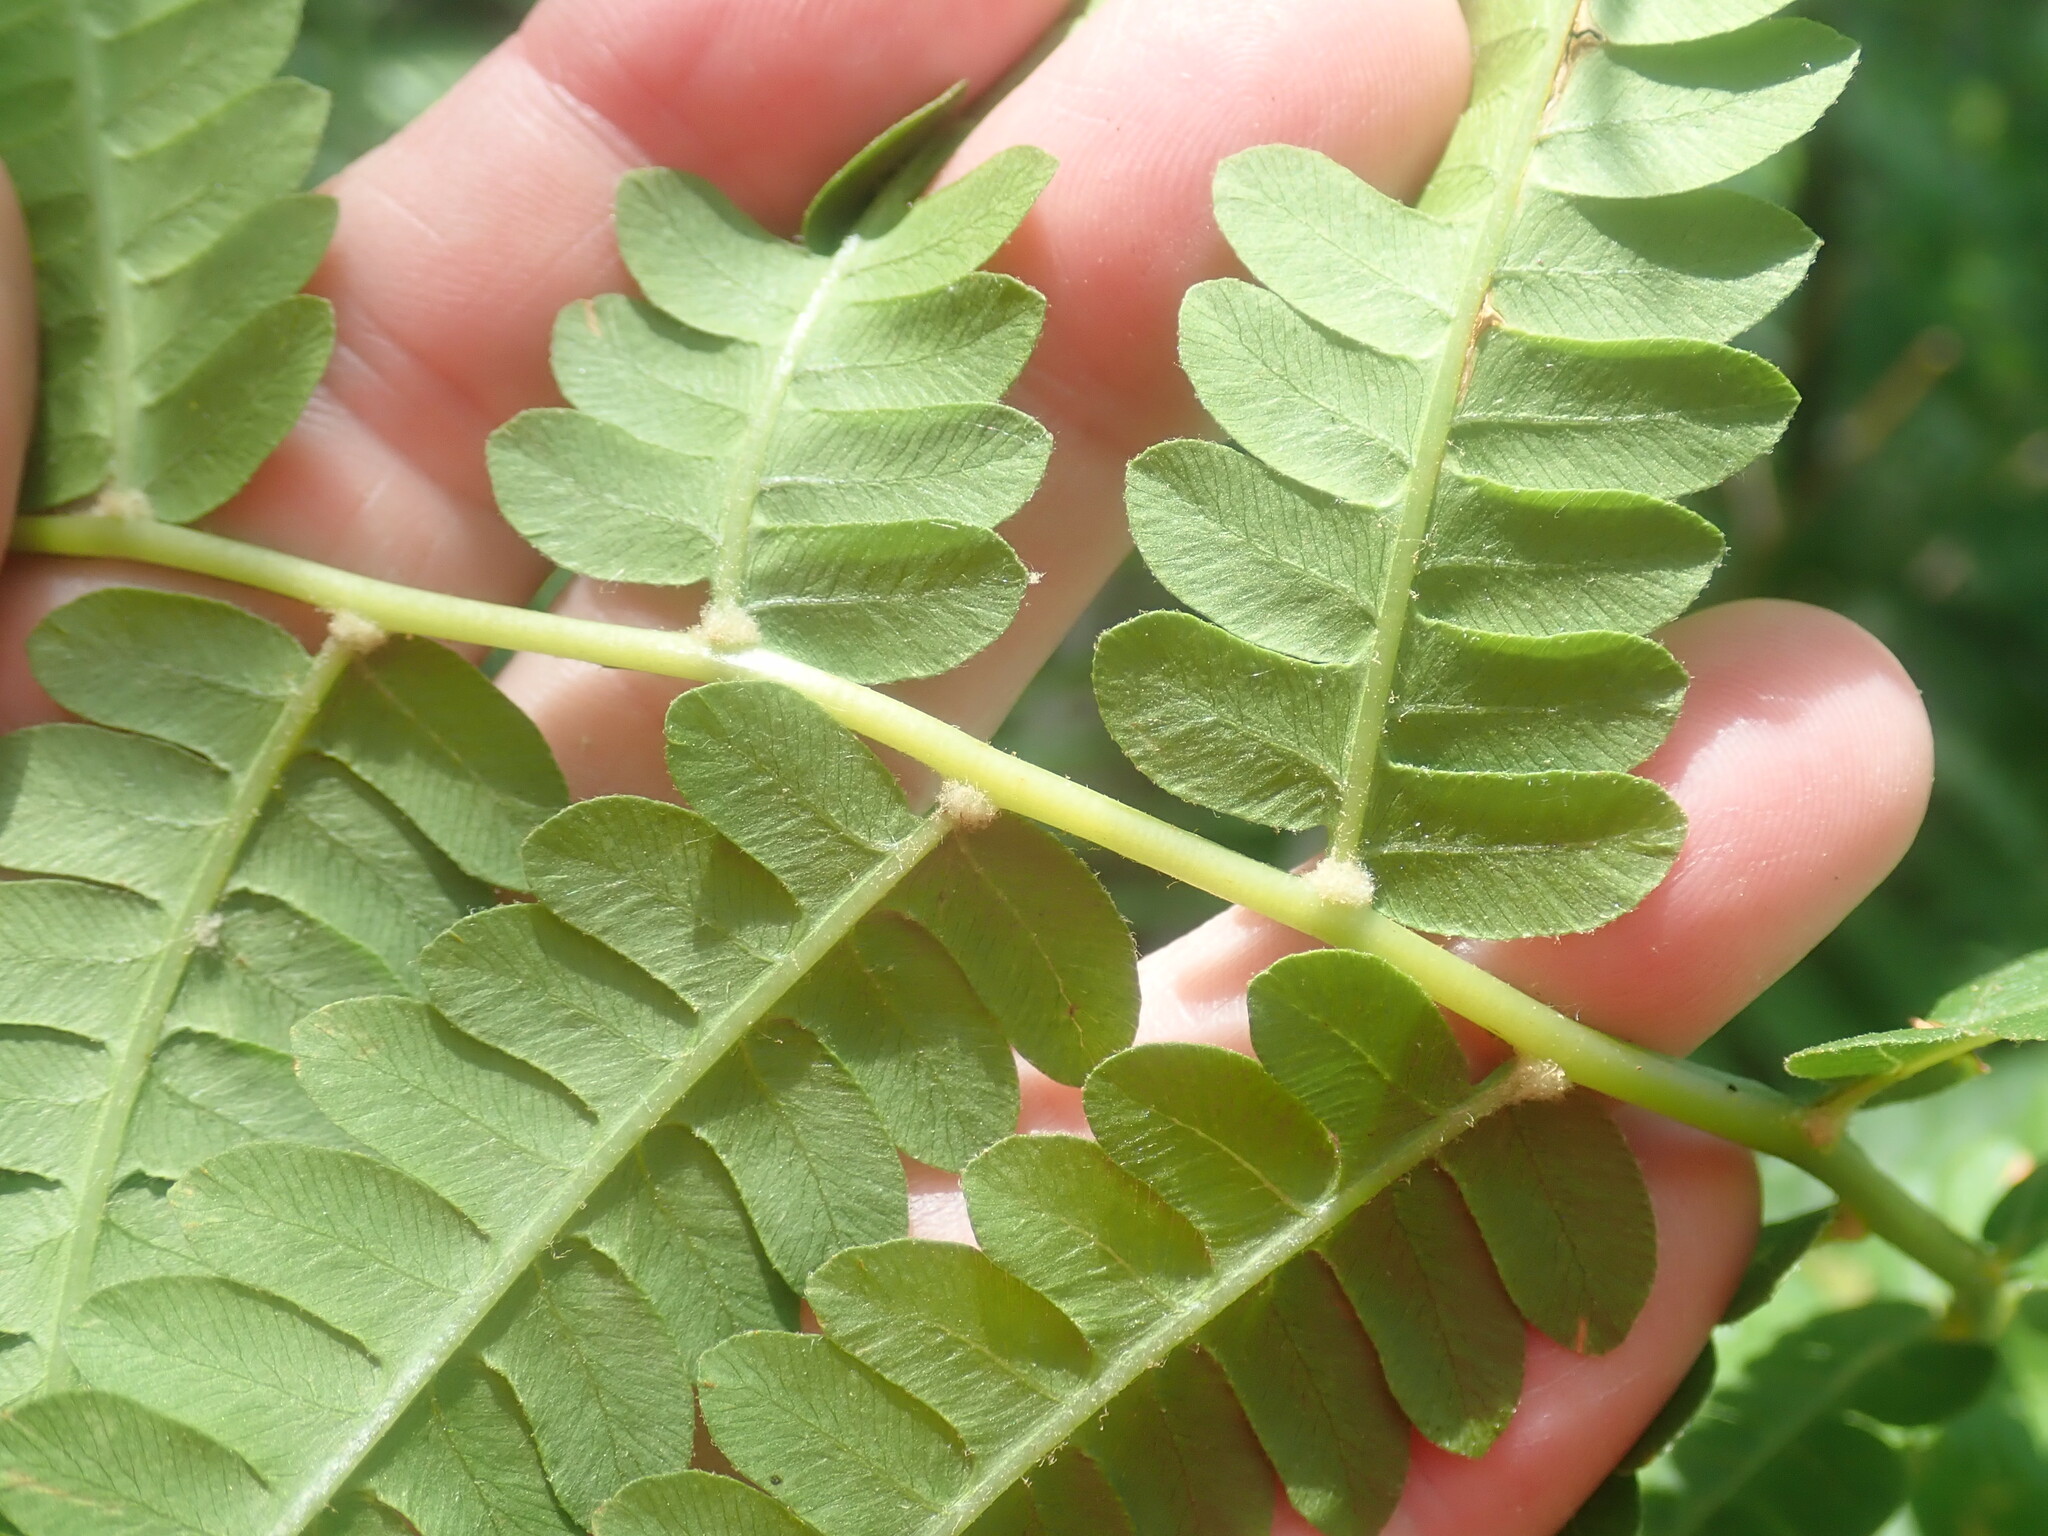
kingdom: Plantae
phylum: Tracheophyta
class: Polypodiopsida
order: Osmundales
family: Osmundaceae
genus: Osmundastrum
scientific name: Osmundastrum cinnamomeum
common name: Cinnamon fern
